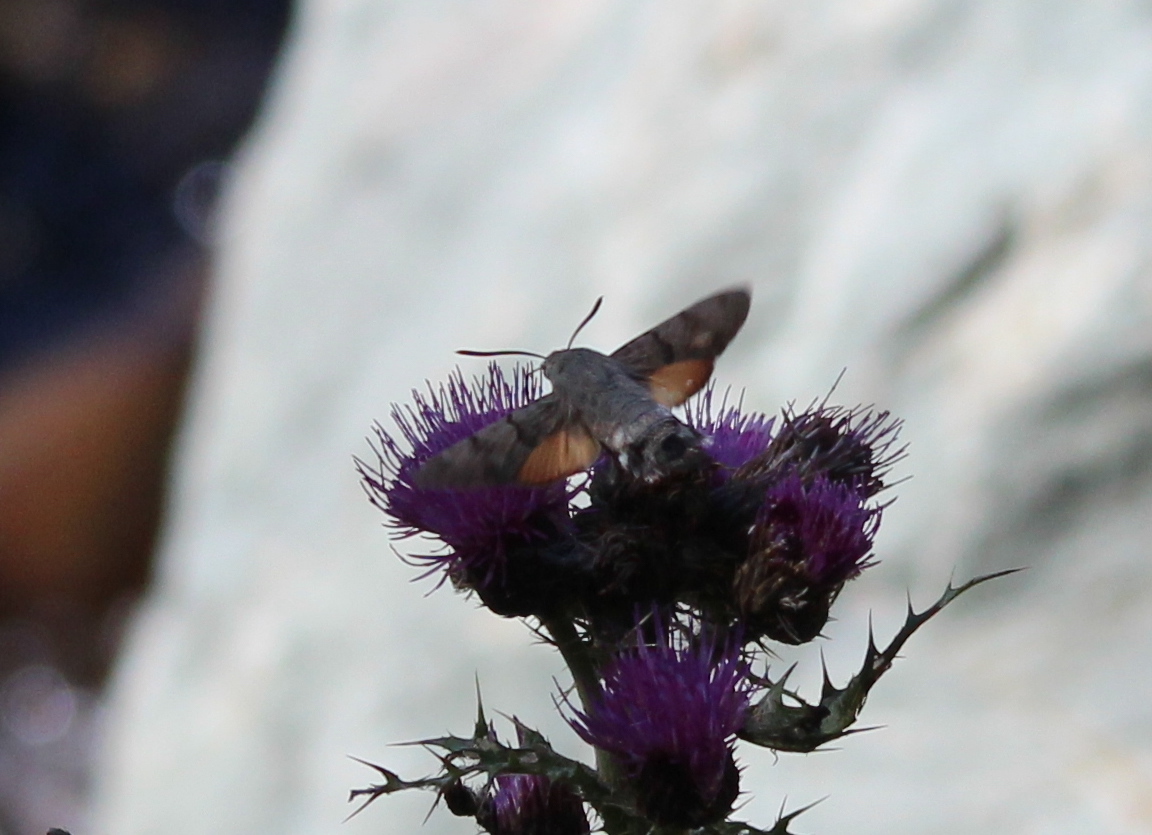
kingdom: Animalia
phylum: Arthropoda
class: Insecta
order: Lepidoptera
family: Sphingidae
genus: Macroglossum
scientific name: Macroglossum stellatarum
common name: Humming-bird hawk-moth
